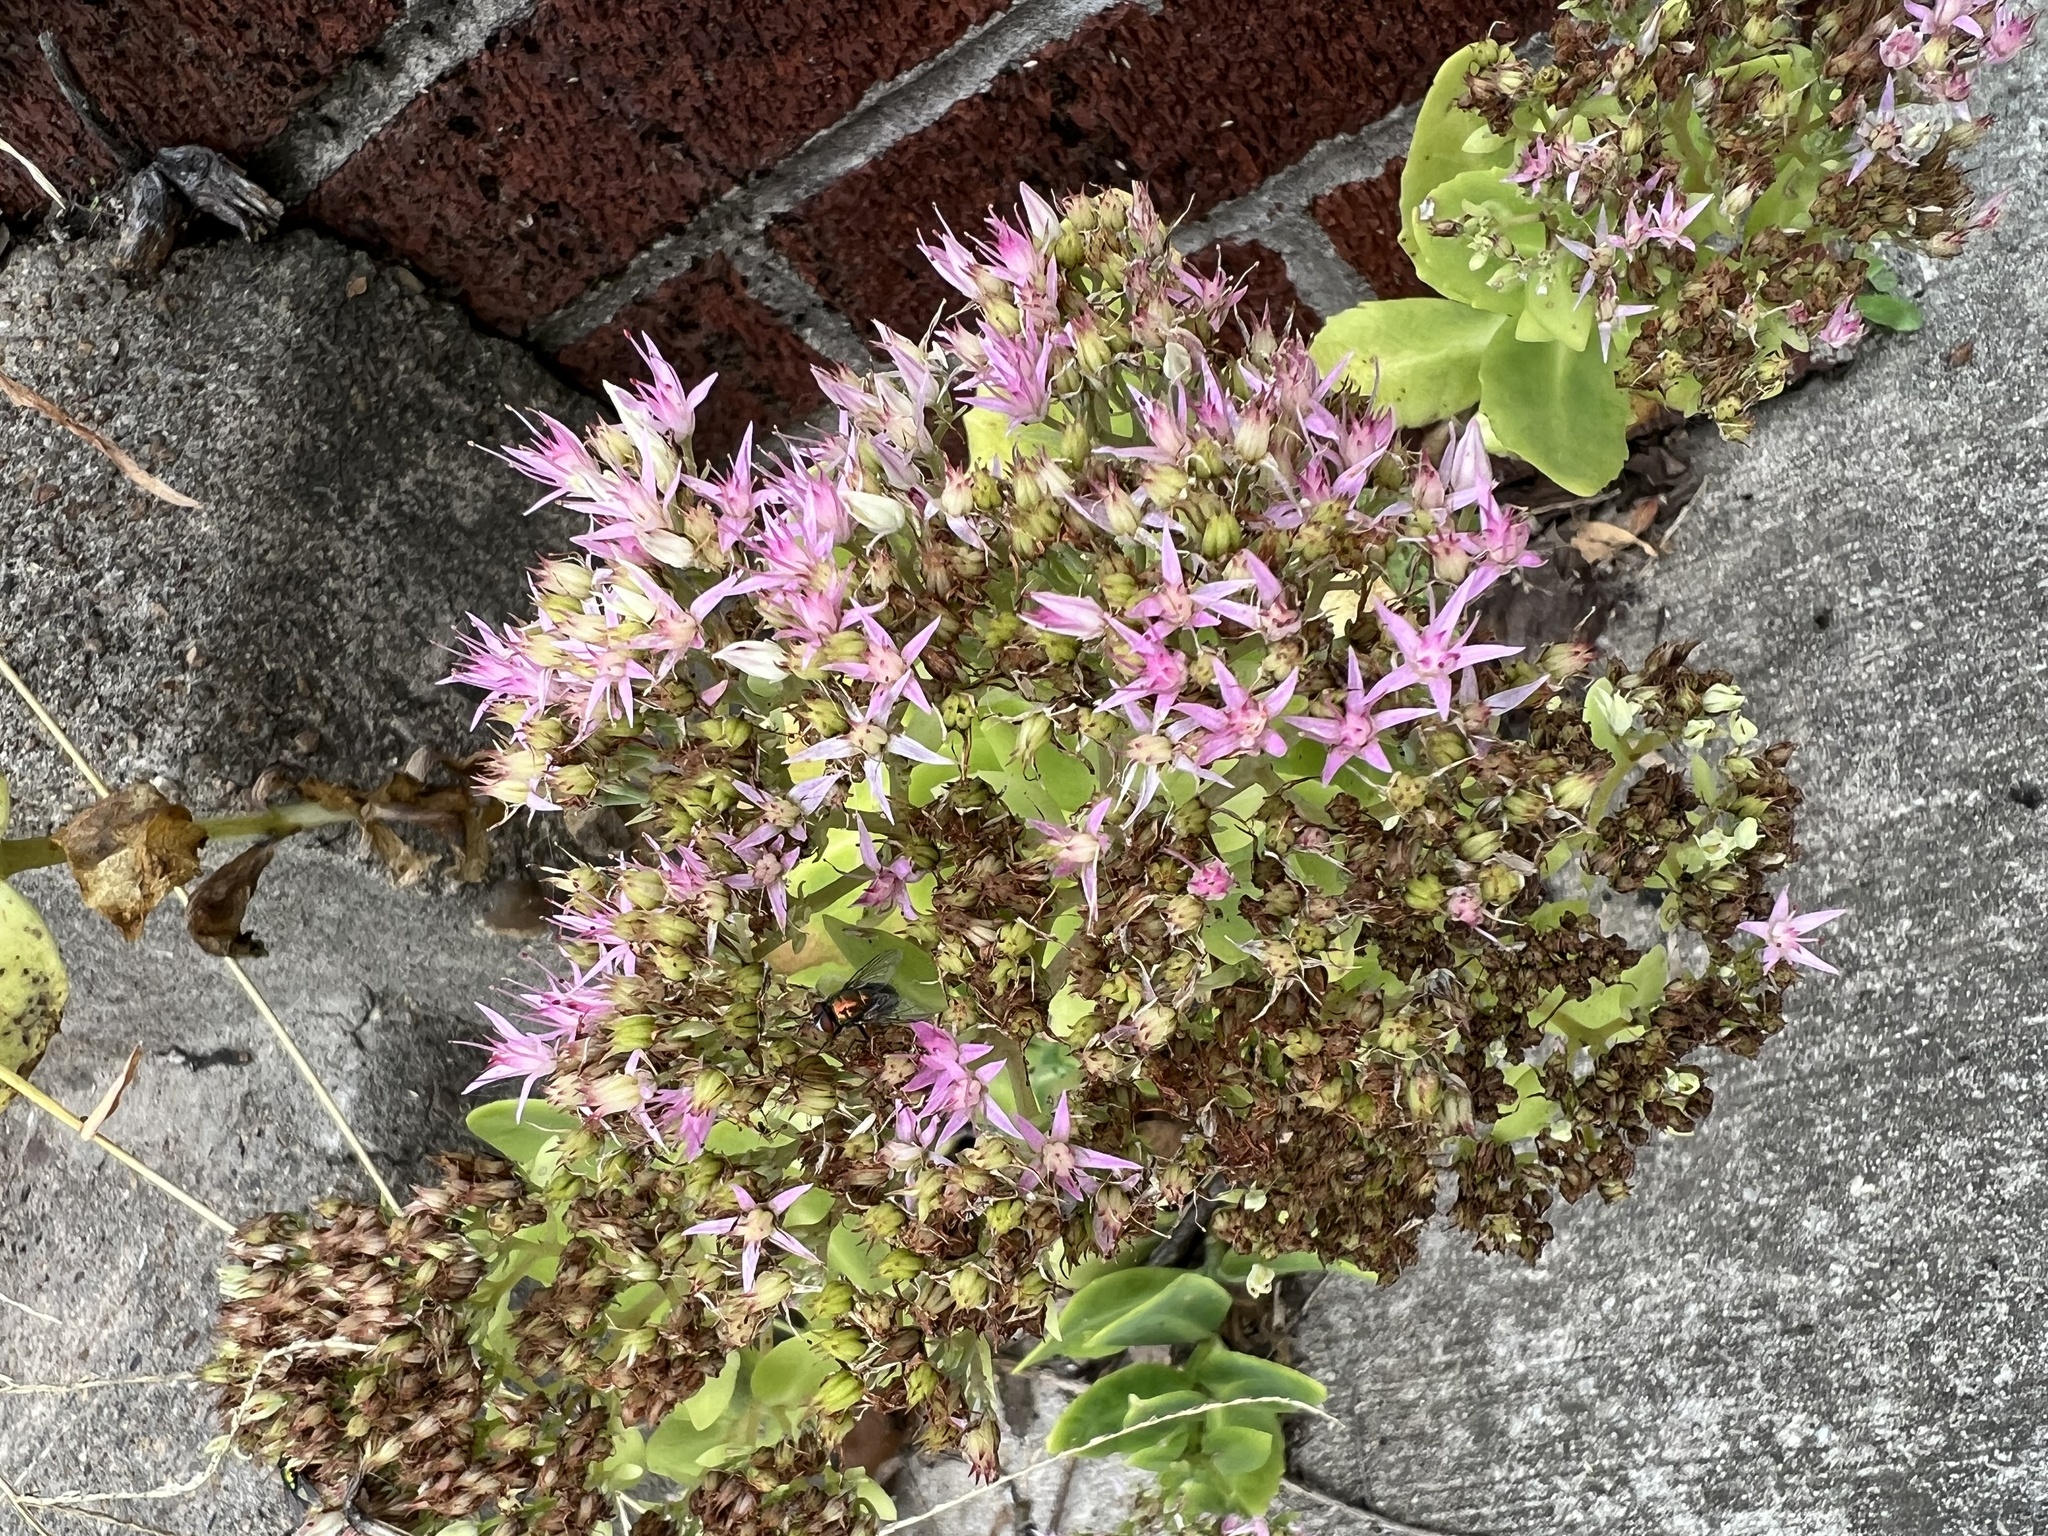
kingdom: Plantae
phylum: Tracheophyta
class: Magnoliopsida
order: Saxifragales
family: Crassulaceae
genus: Hylotelephium
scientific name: Hylotelephium spectabile
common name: Showy stonecrop
